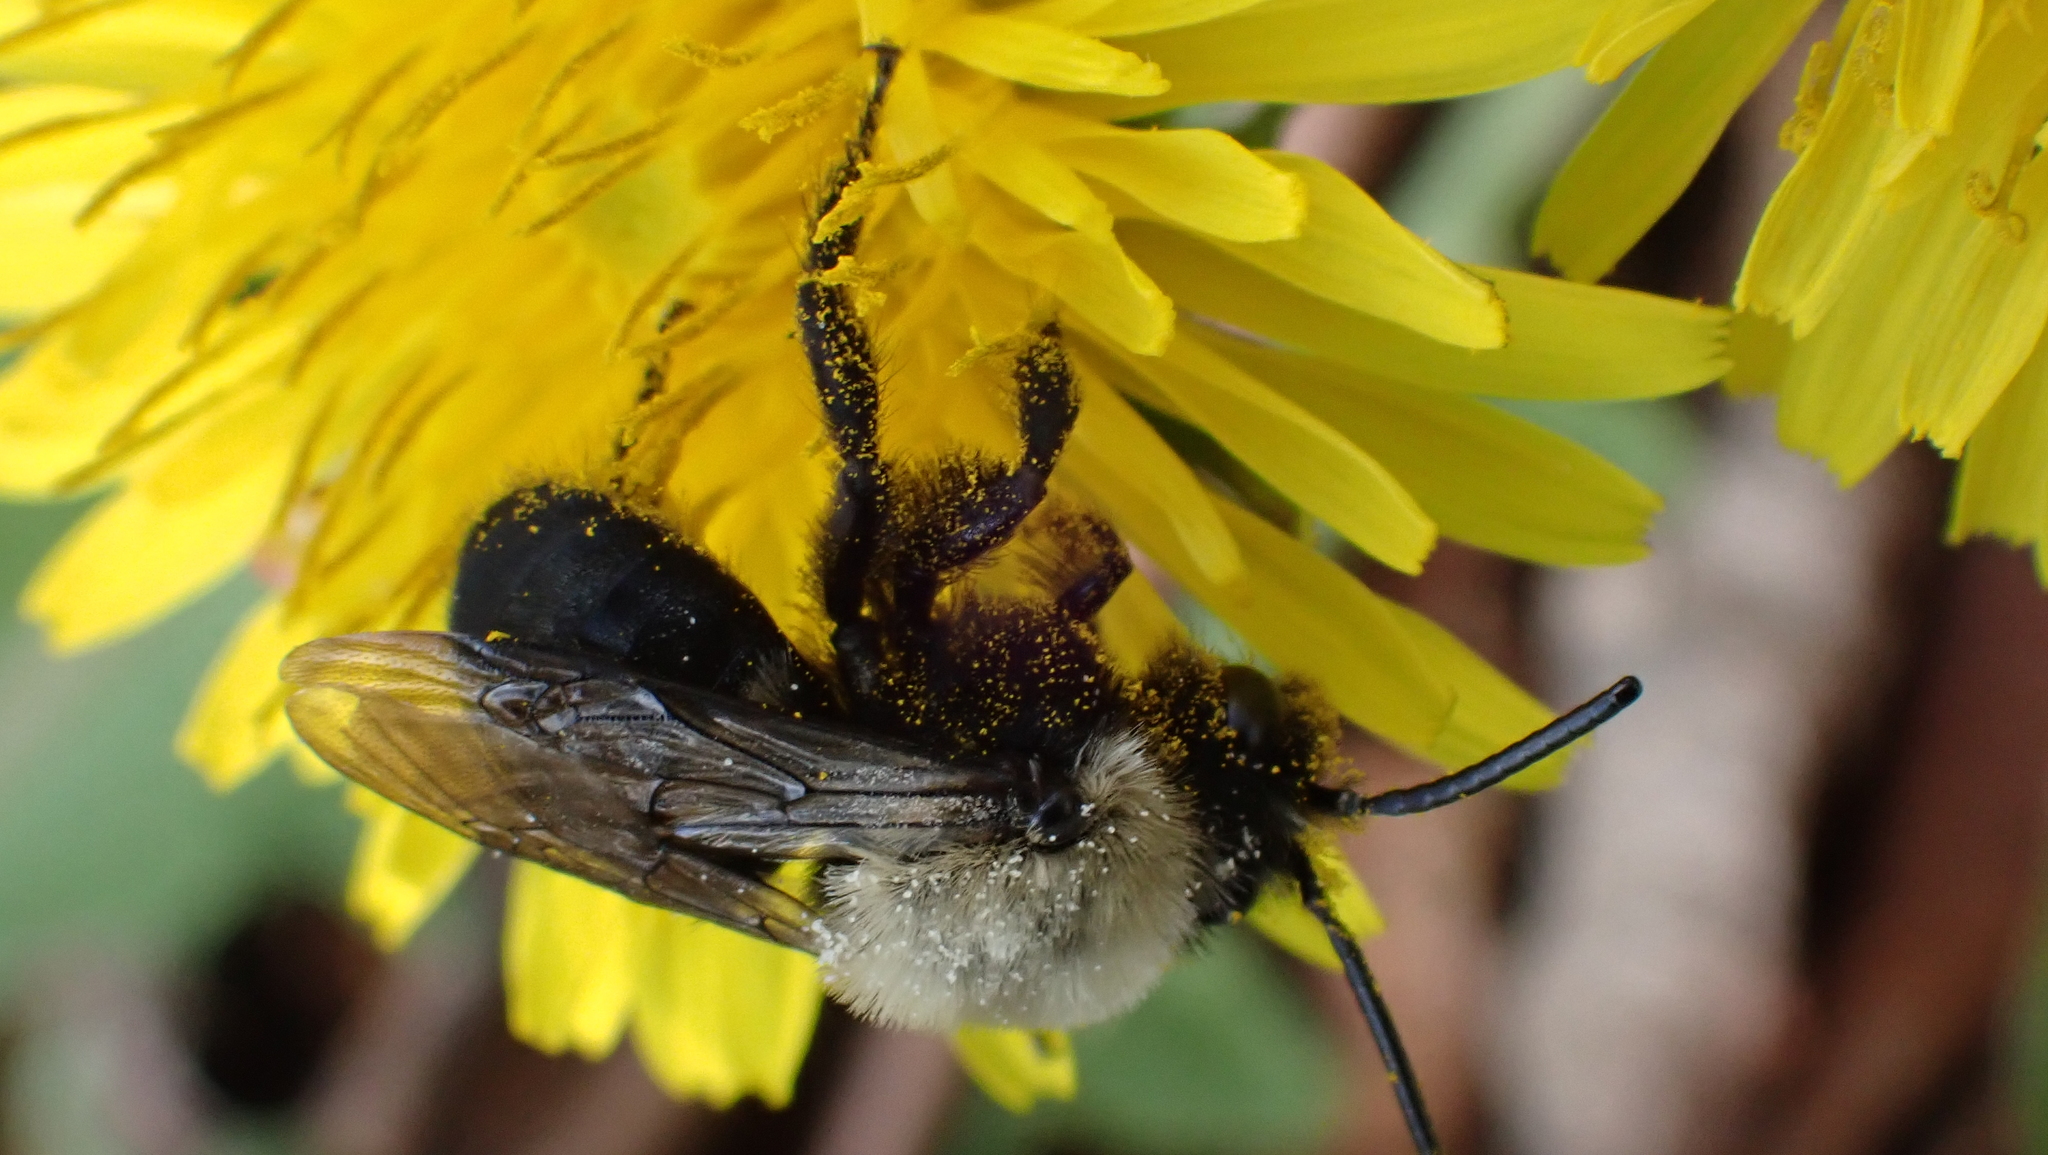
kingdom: Animalia
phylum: Arthropoda
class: Insecta
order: Hymenoptera
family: Andrenidae
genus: Andrena
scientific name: Andrena carlini
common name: Carlin's mining bee
